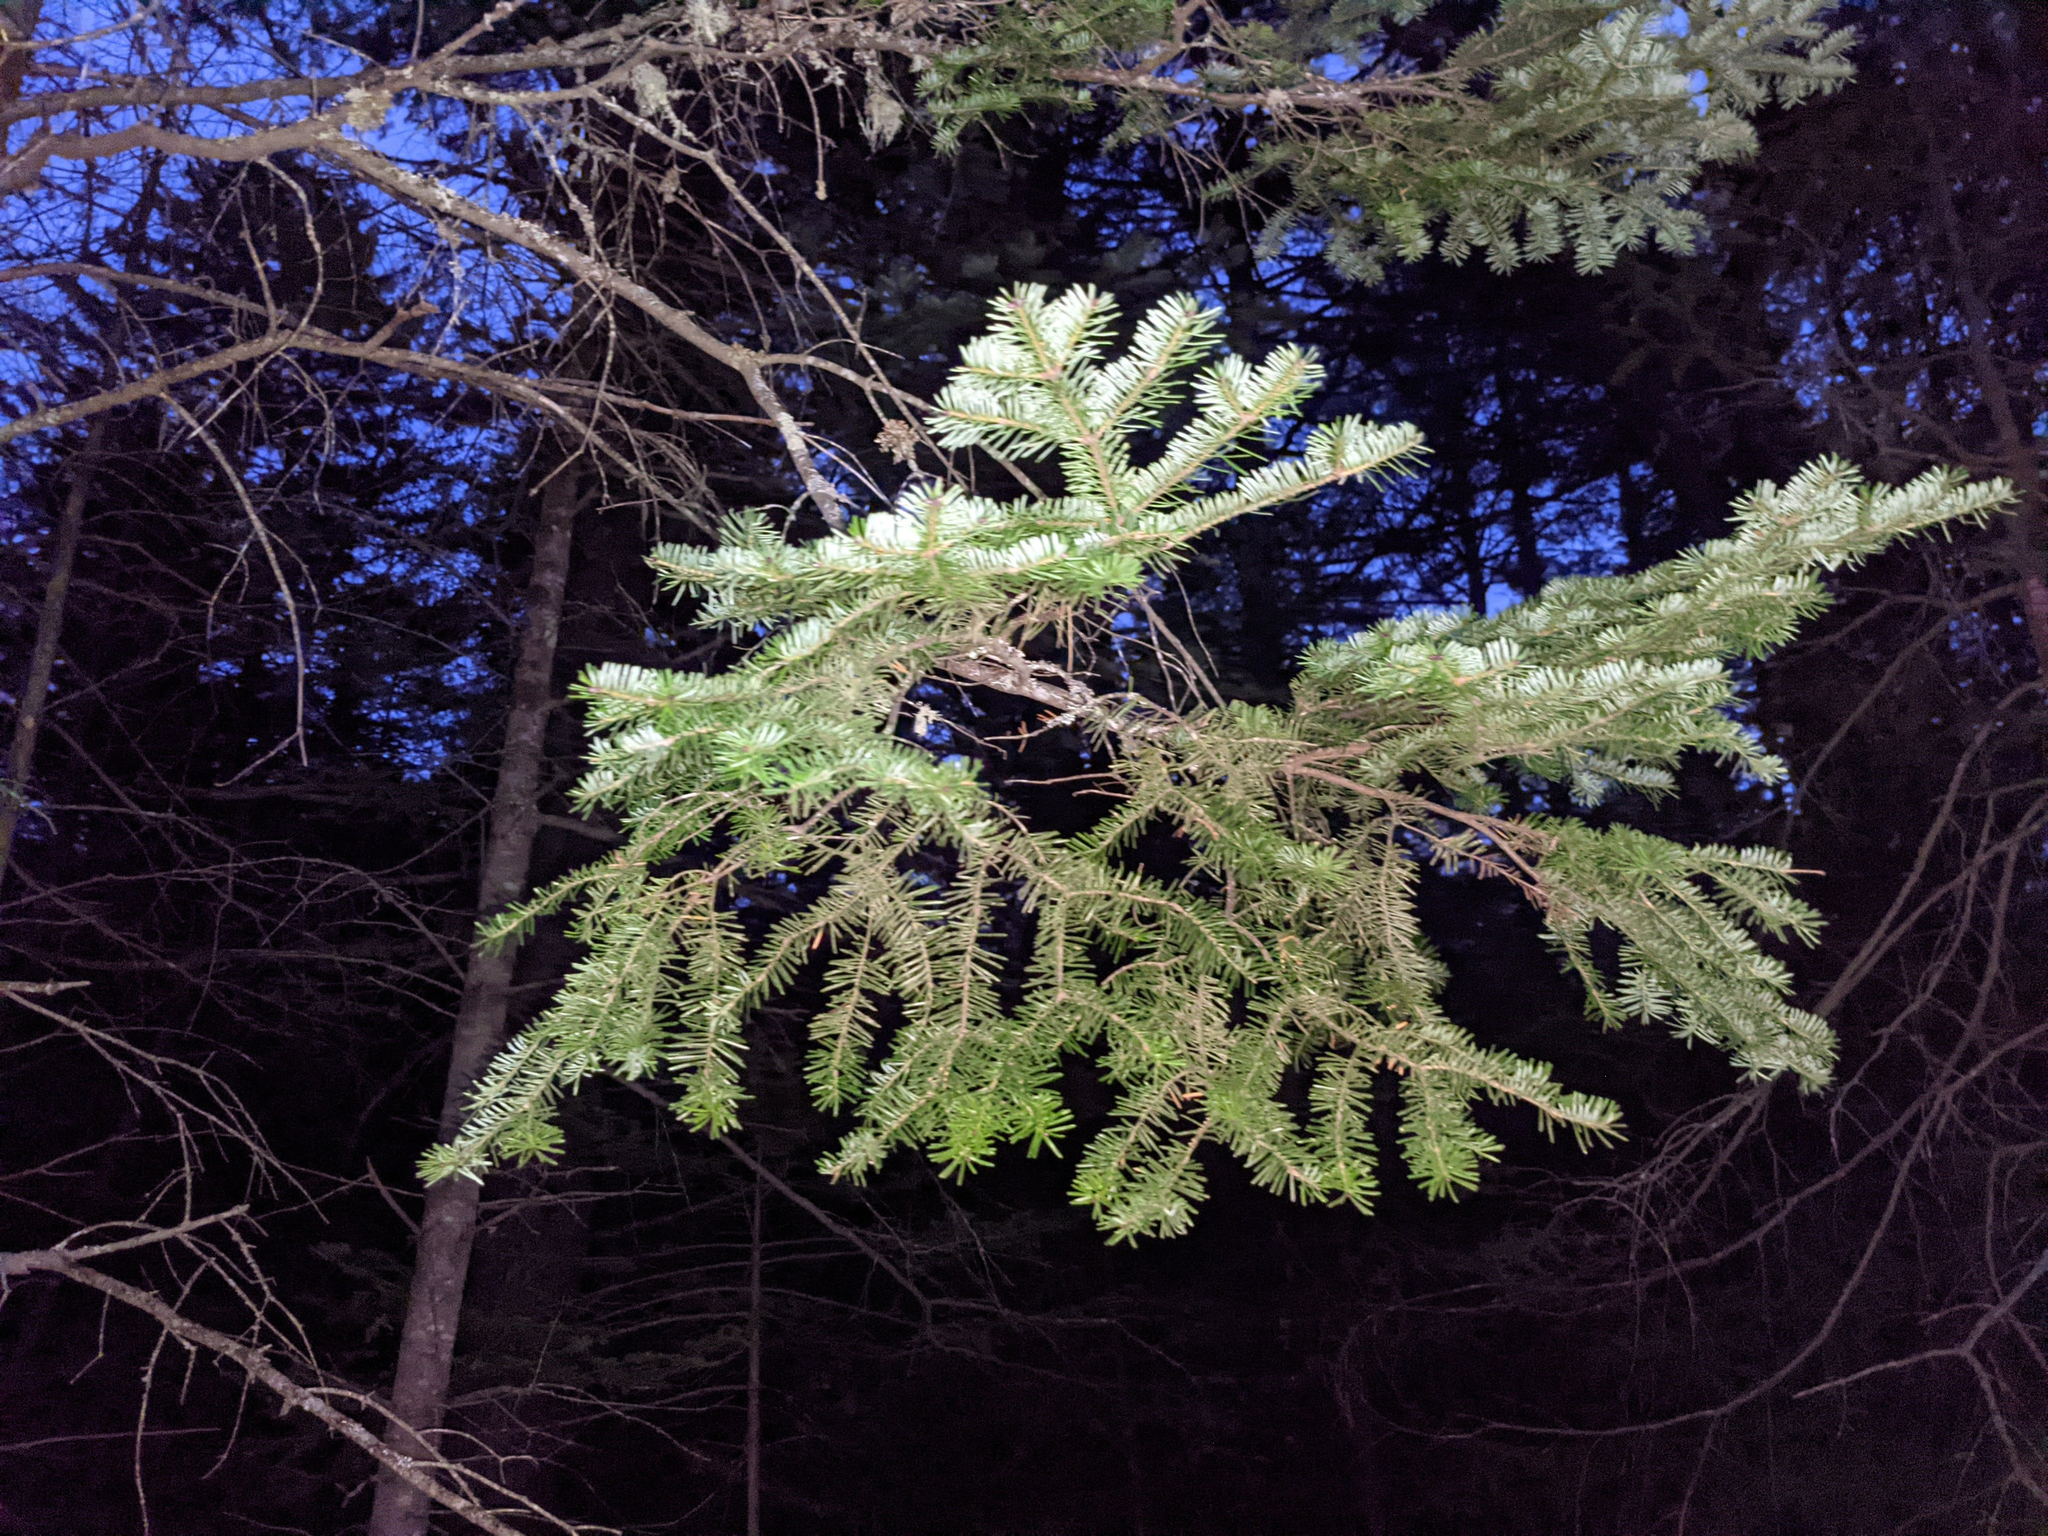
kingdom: Plantae
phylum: Tracheophyta
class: Pinopsida
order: Pinales
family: Pinaceae
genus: Abies
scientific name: Abies balsamea
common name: Balsam fir
